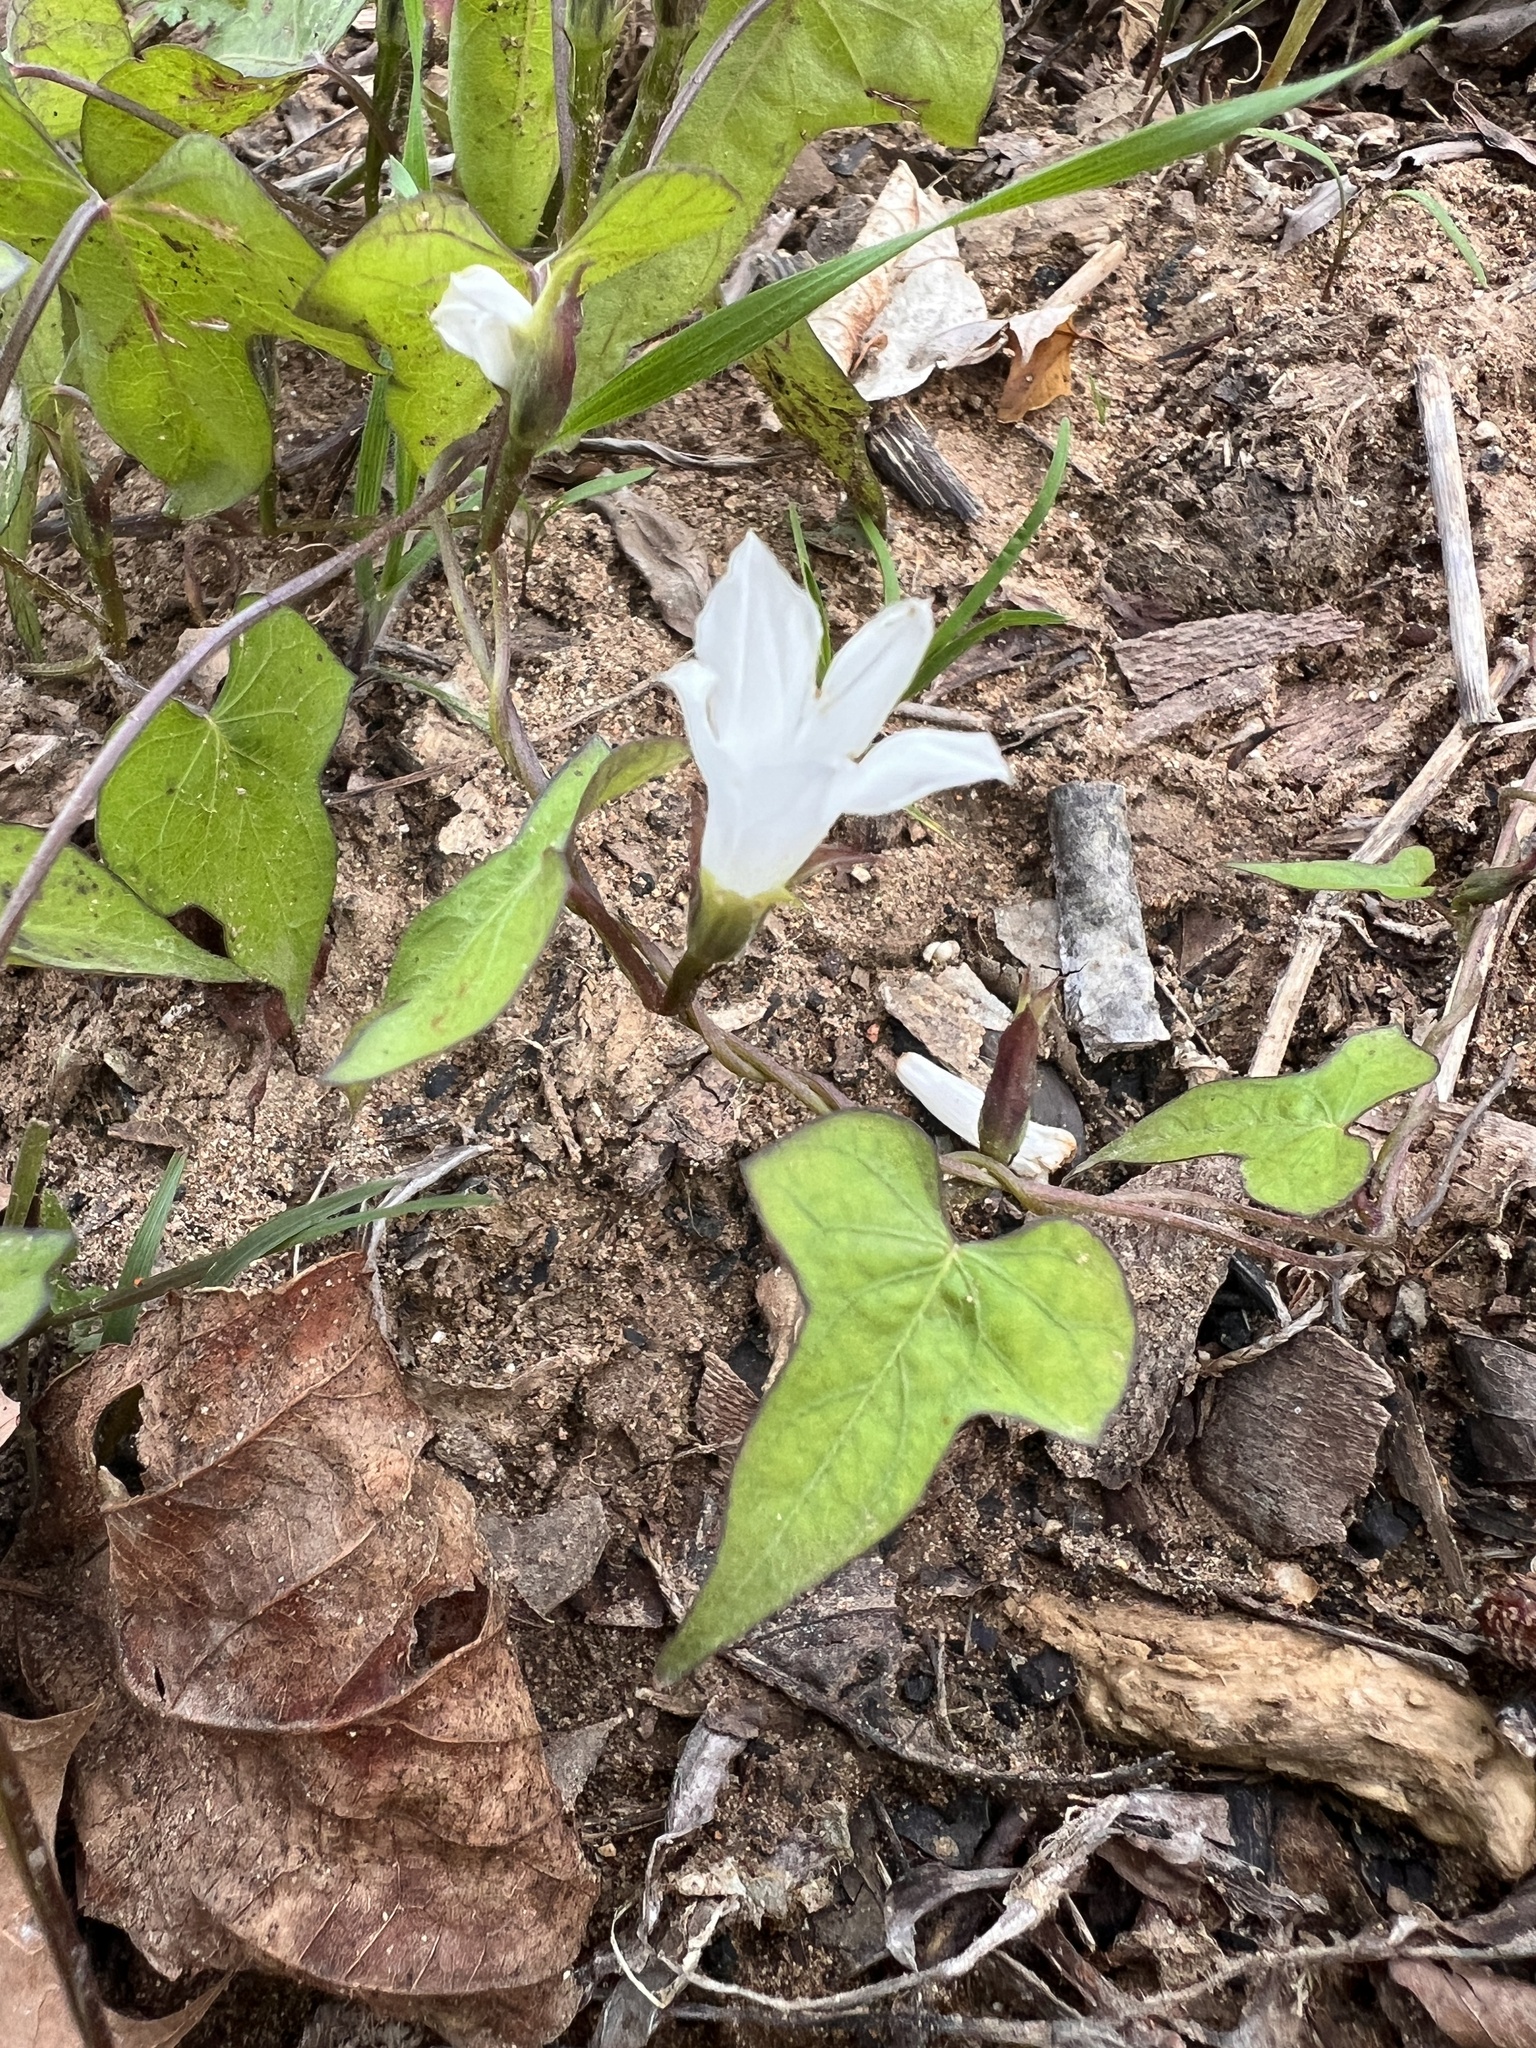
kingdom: Plantae
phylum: Tracheophyta
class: Magnoliopsida
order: Solanales
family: Convolvulaceae
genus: Ipomoea
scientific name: Ipomoea lacunosa
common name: White morning-glory
